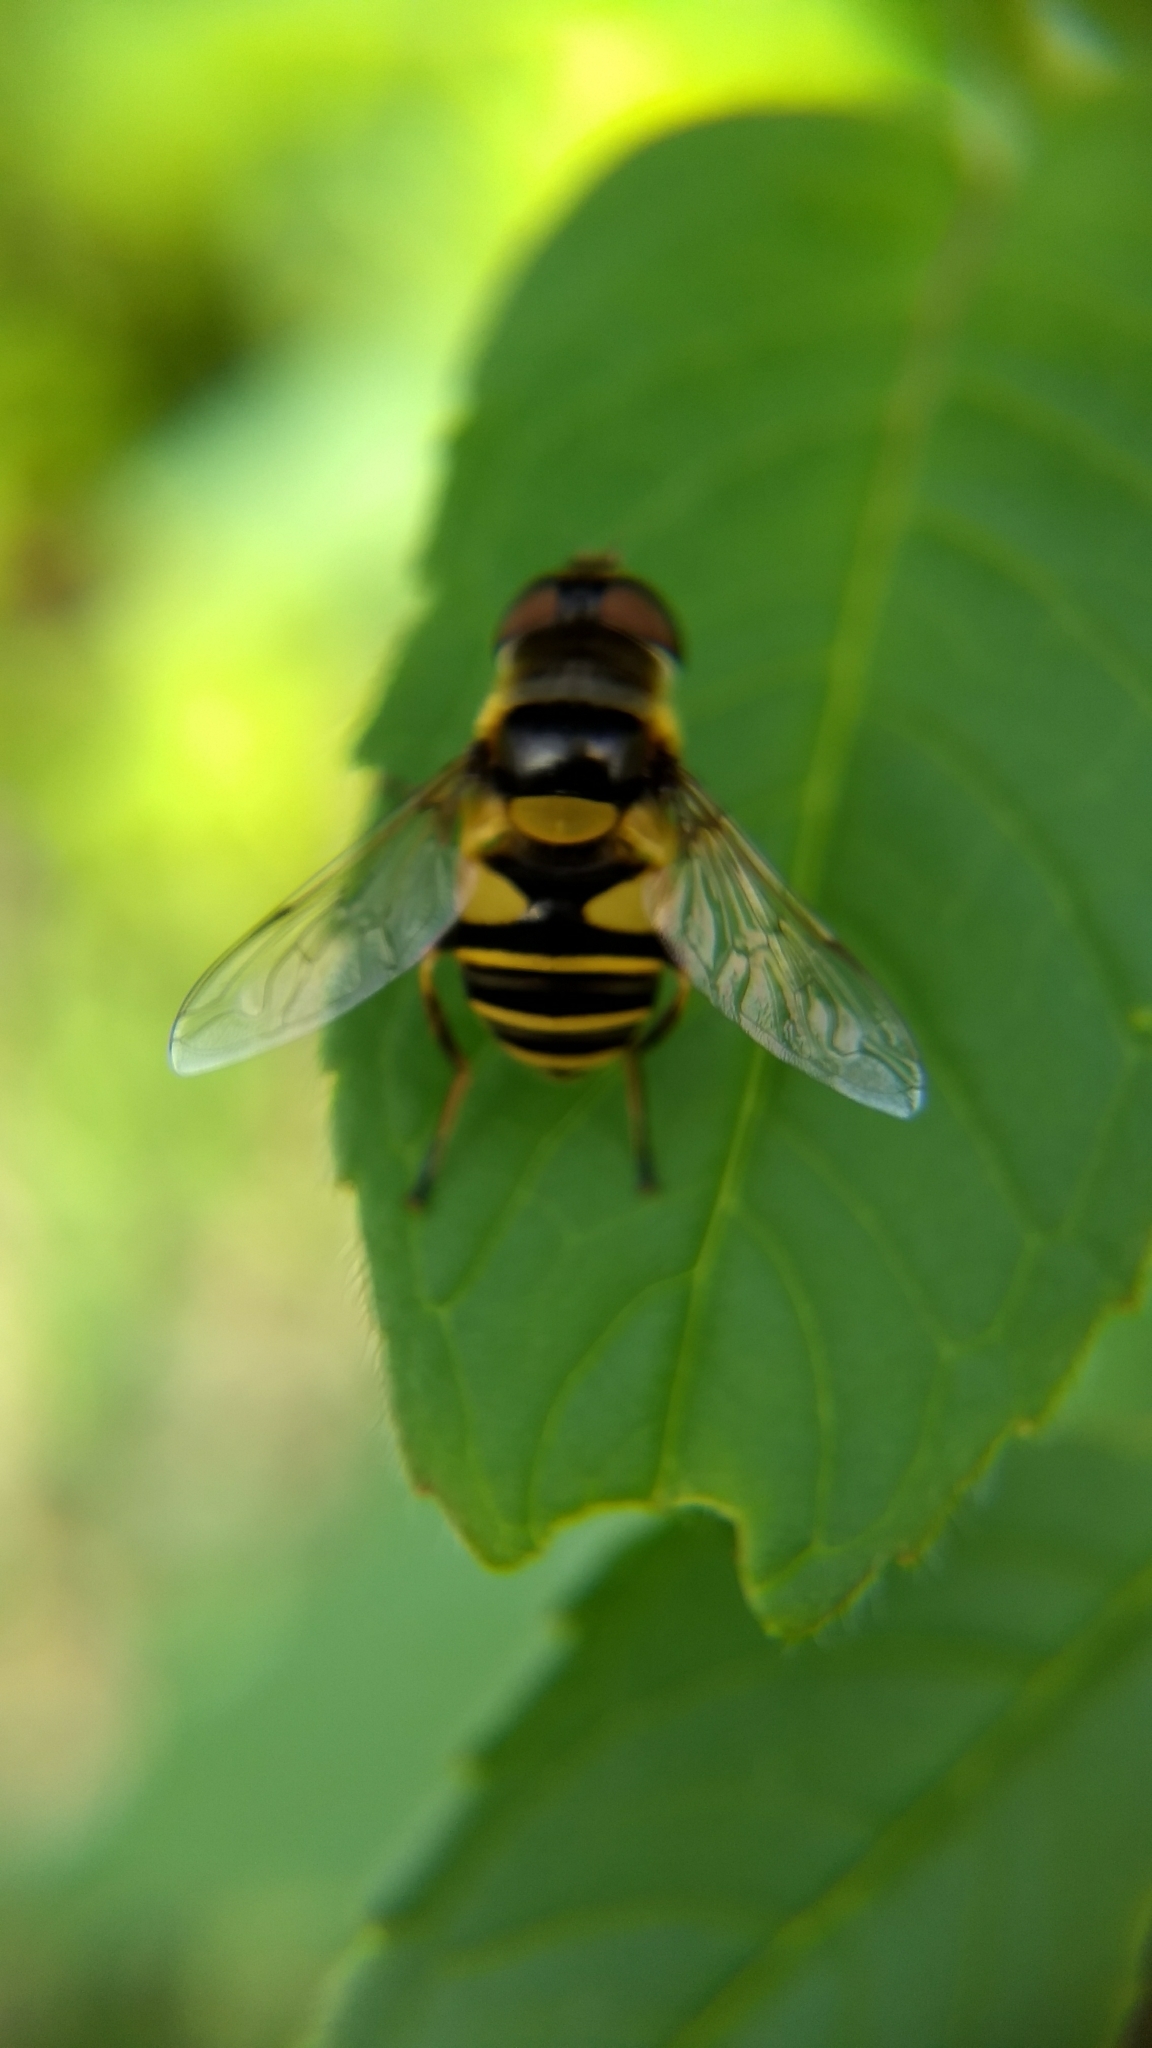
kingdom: Animalia
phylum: Arthropoda
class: Insecta
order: Diptera
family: Syrphidae
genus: Eristalis
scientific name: Eristalis transversa
